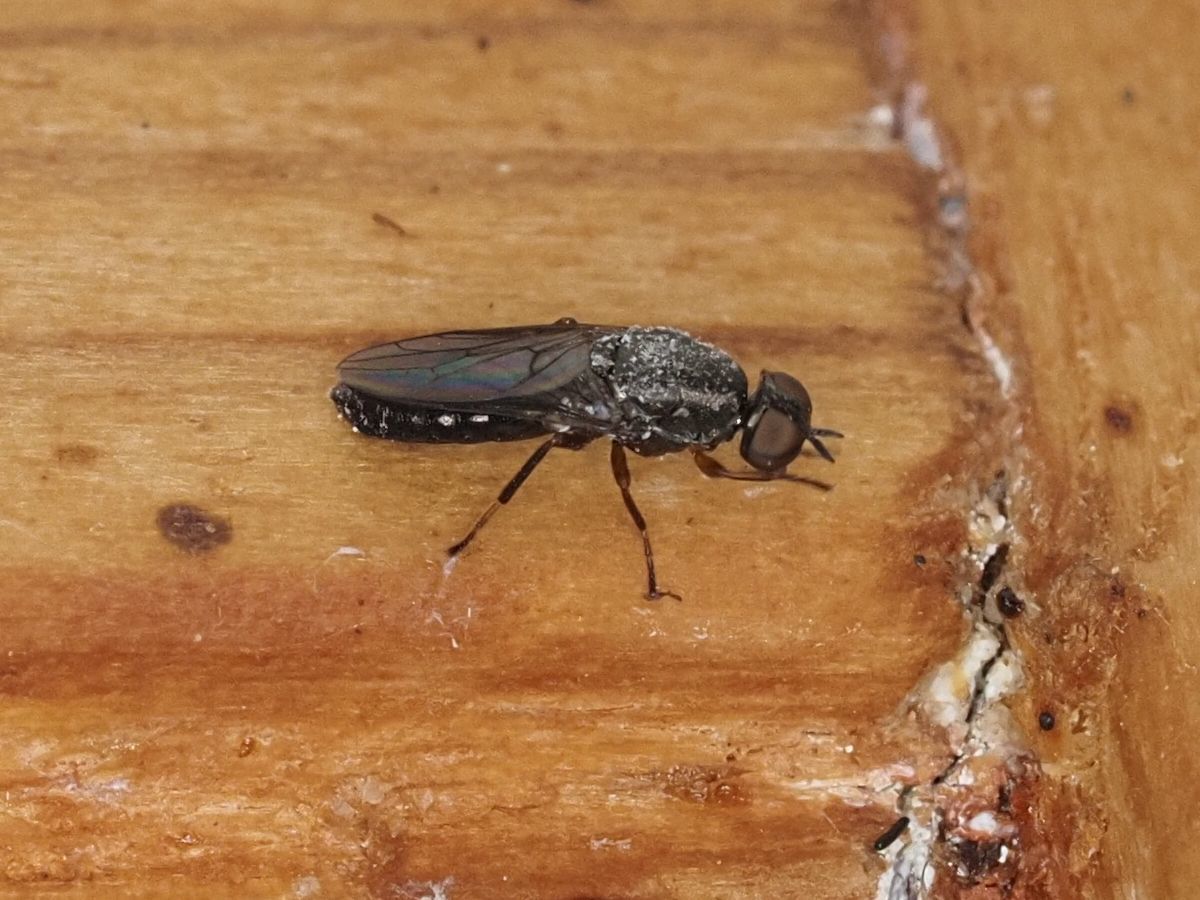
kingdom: Animalia
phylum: Arthropoda
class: Insecta
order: Diptera
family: Scenopinidae
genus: Scenopinus
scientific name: Scenopinus fenestralis
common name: House windowfly
